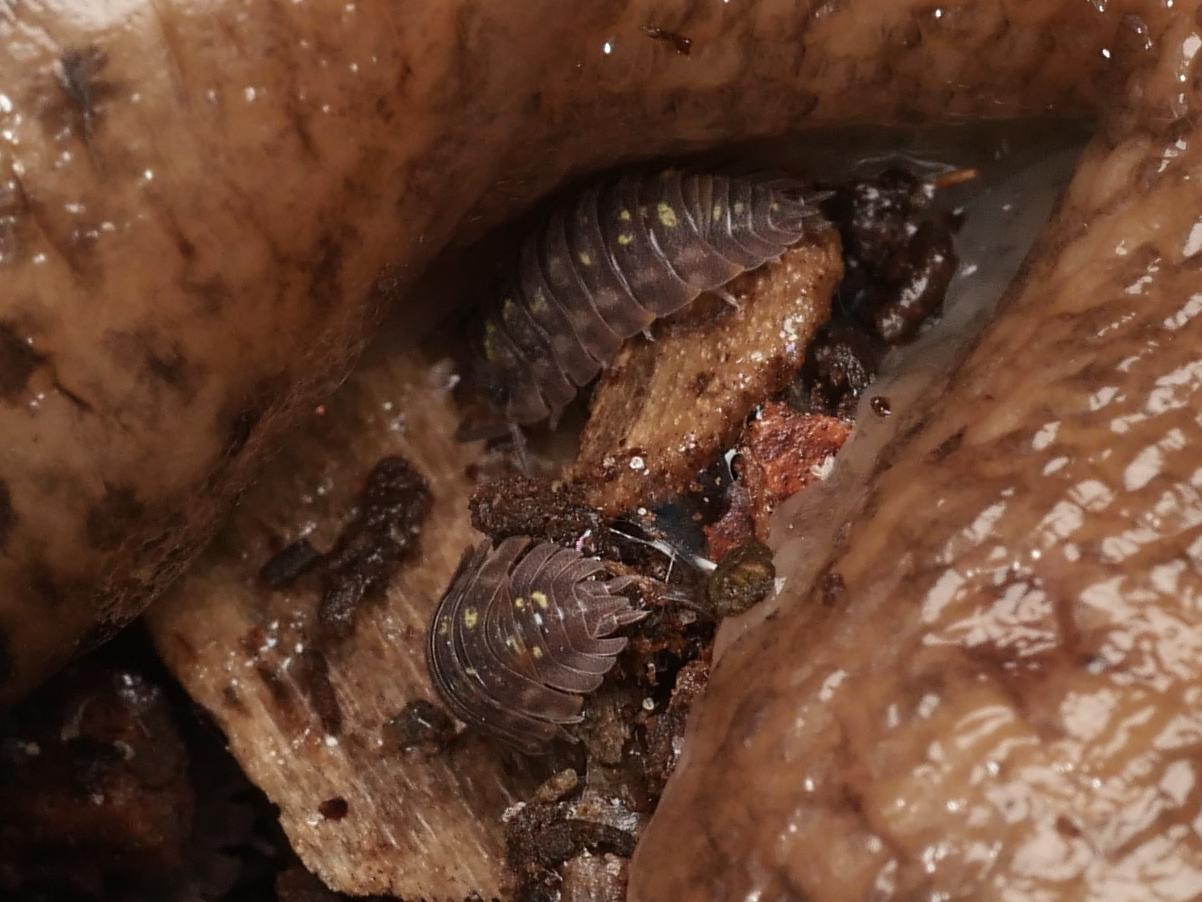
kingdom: Animalia
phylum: Arthropoda
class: Malacostraca
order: Isopoda
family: Oniscidae
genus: Oniscus
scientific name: Oniscus asellus
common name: Common shiny woodlouse
